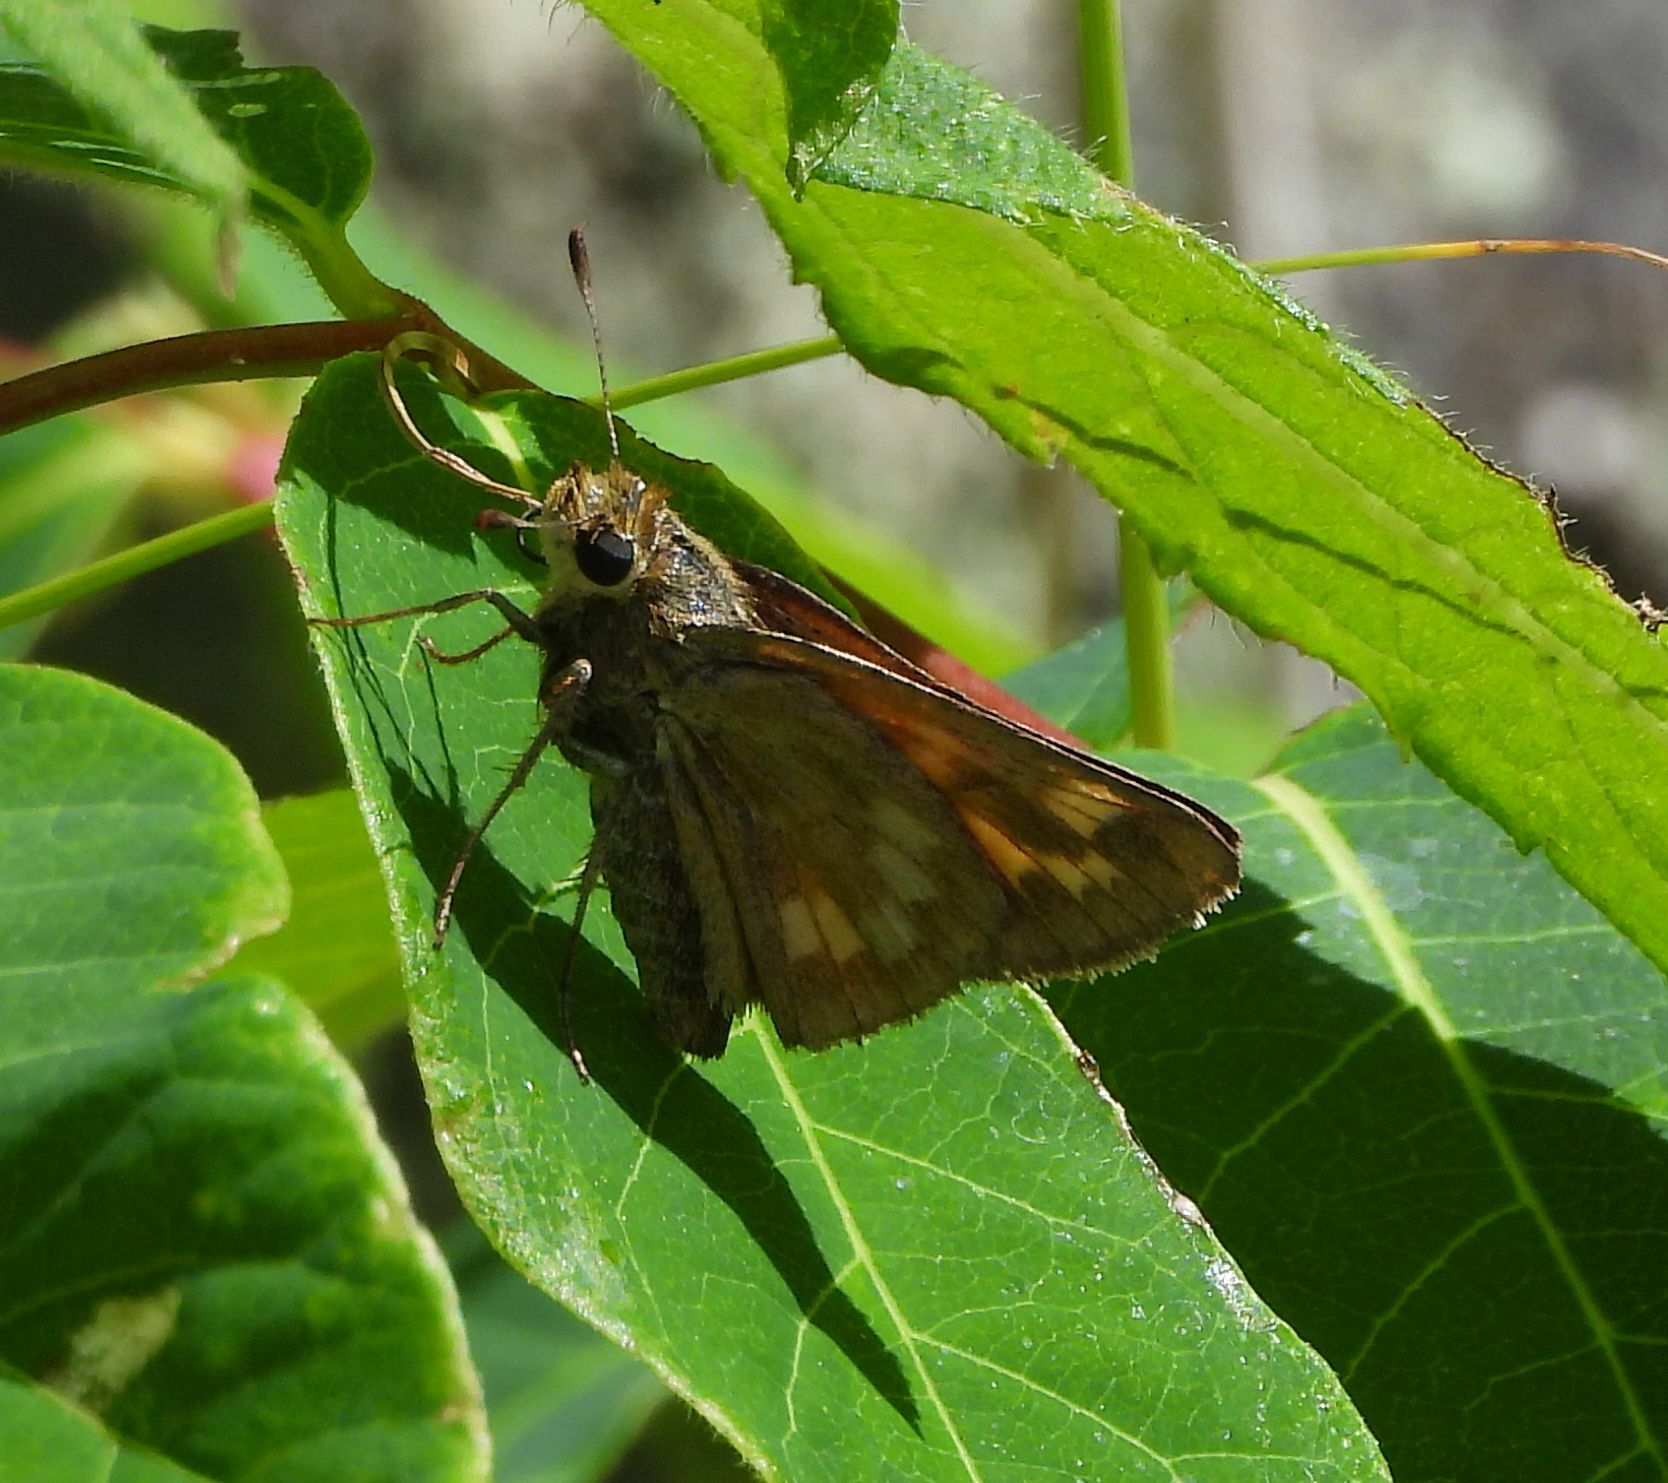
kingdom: Animalia
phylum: Arthropoda
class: Insecta
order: Lepidoptera
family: Hesperiidae
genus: Polites
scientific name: Polites mystic
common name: Long dash
